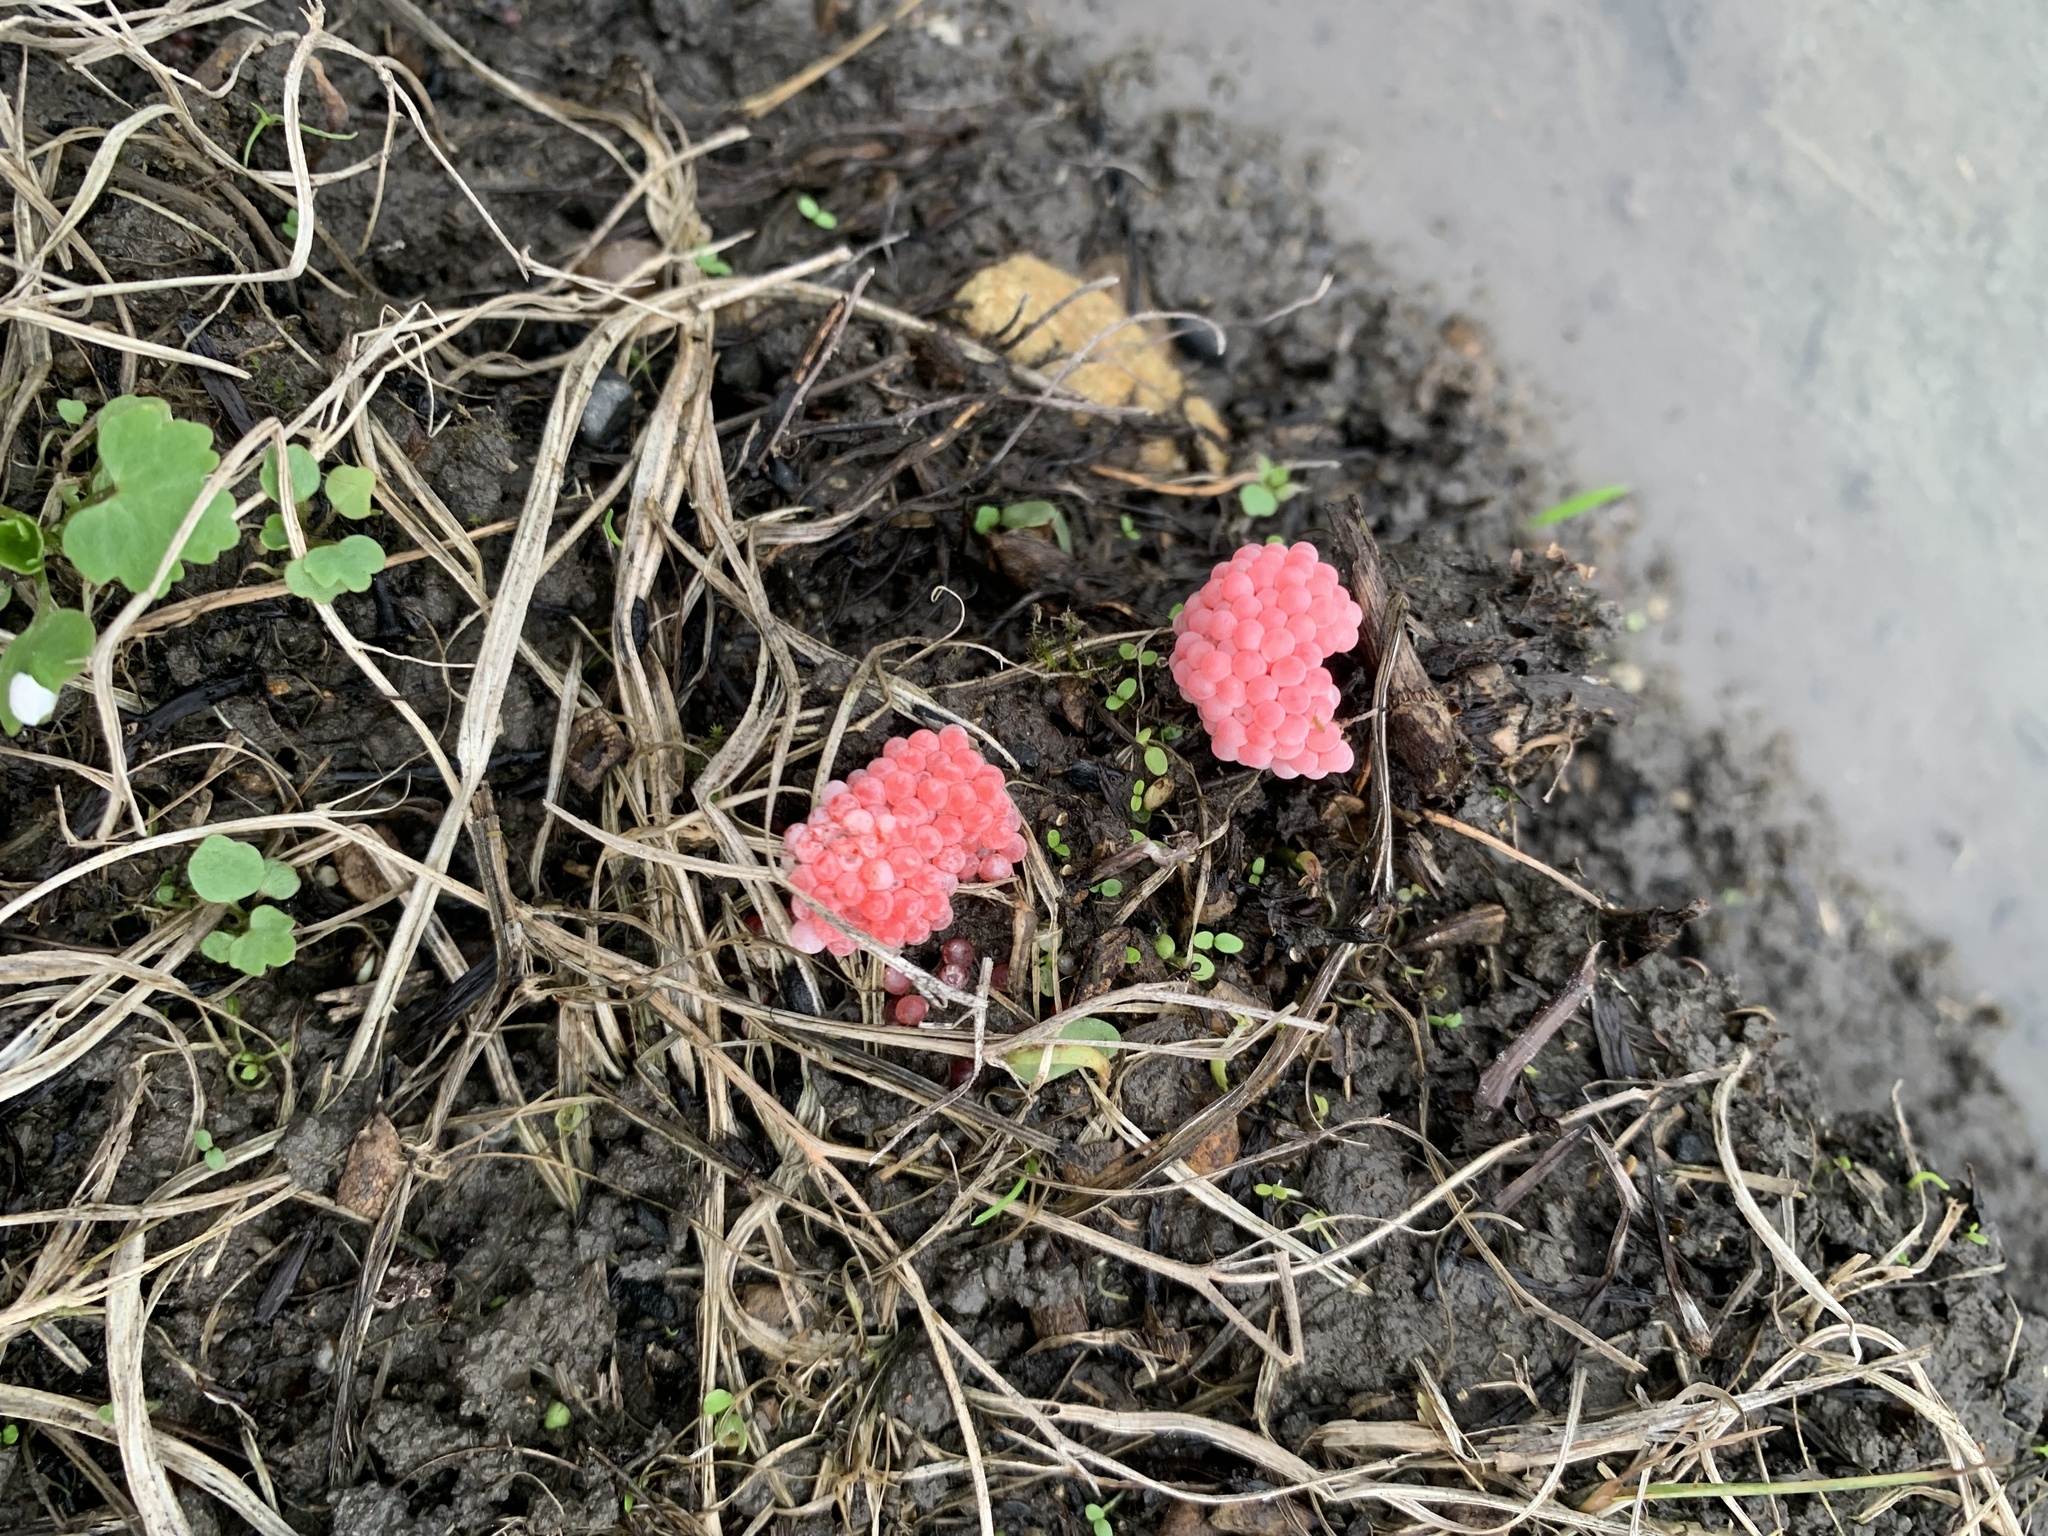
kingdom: Animalia
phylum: Mollusca
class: Gastropoda
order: Architaenioglossa
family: Ampullariidae
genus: Pomacea
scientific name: Pomacea canaliculata
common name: Channeled applesnail
